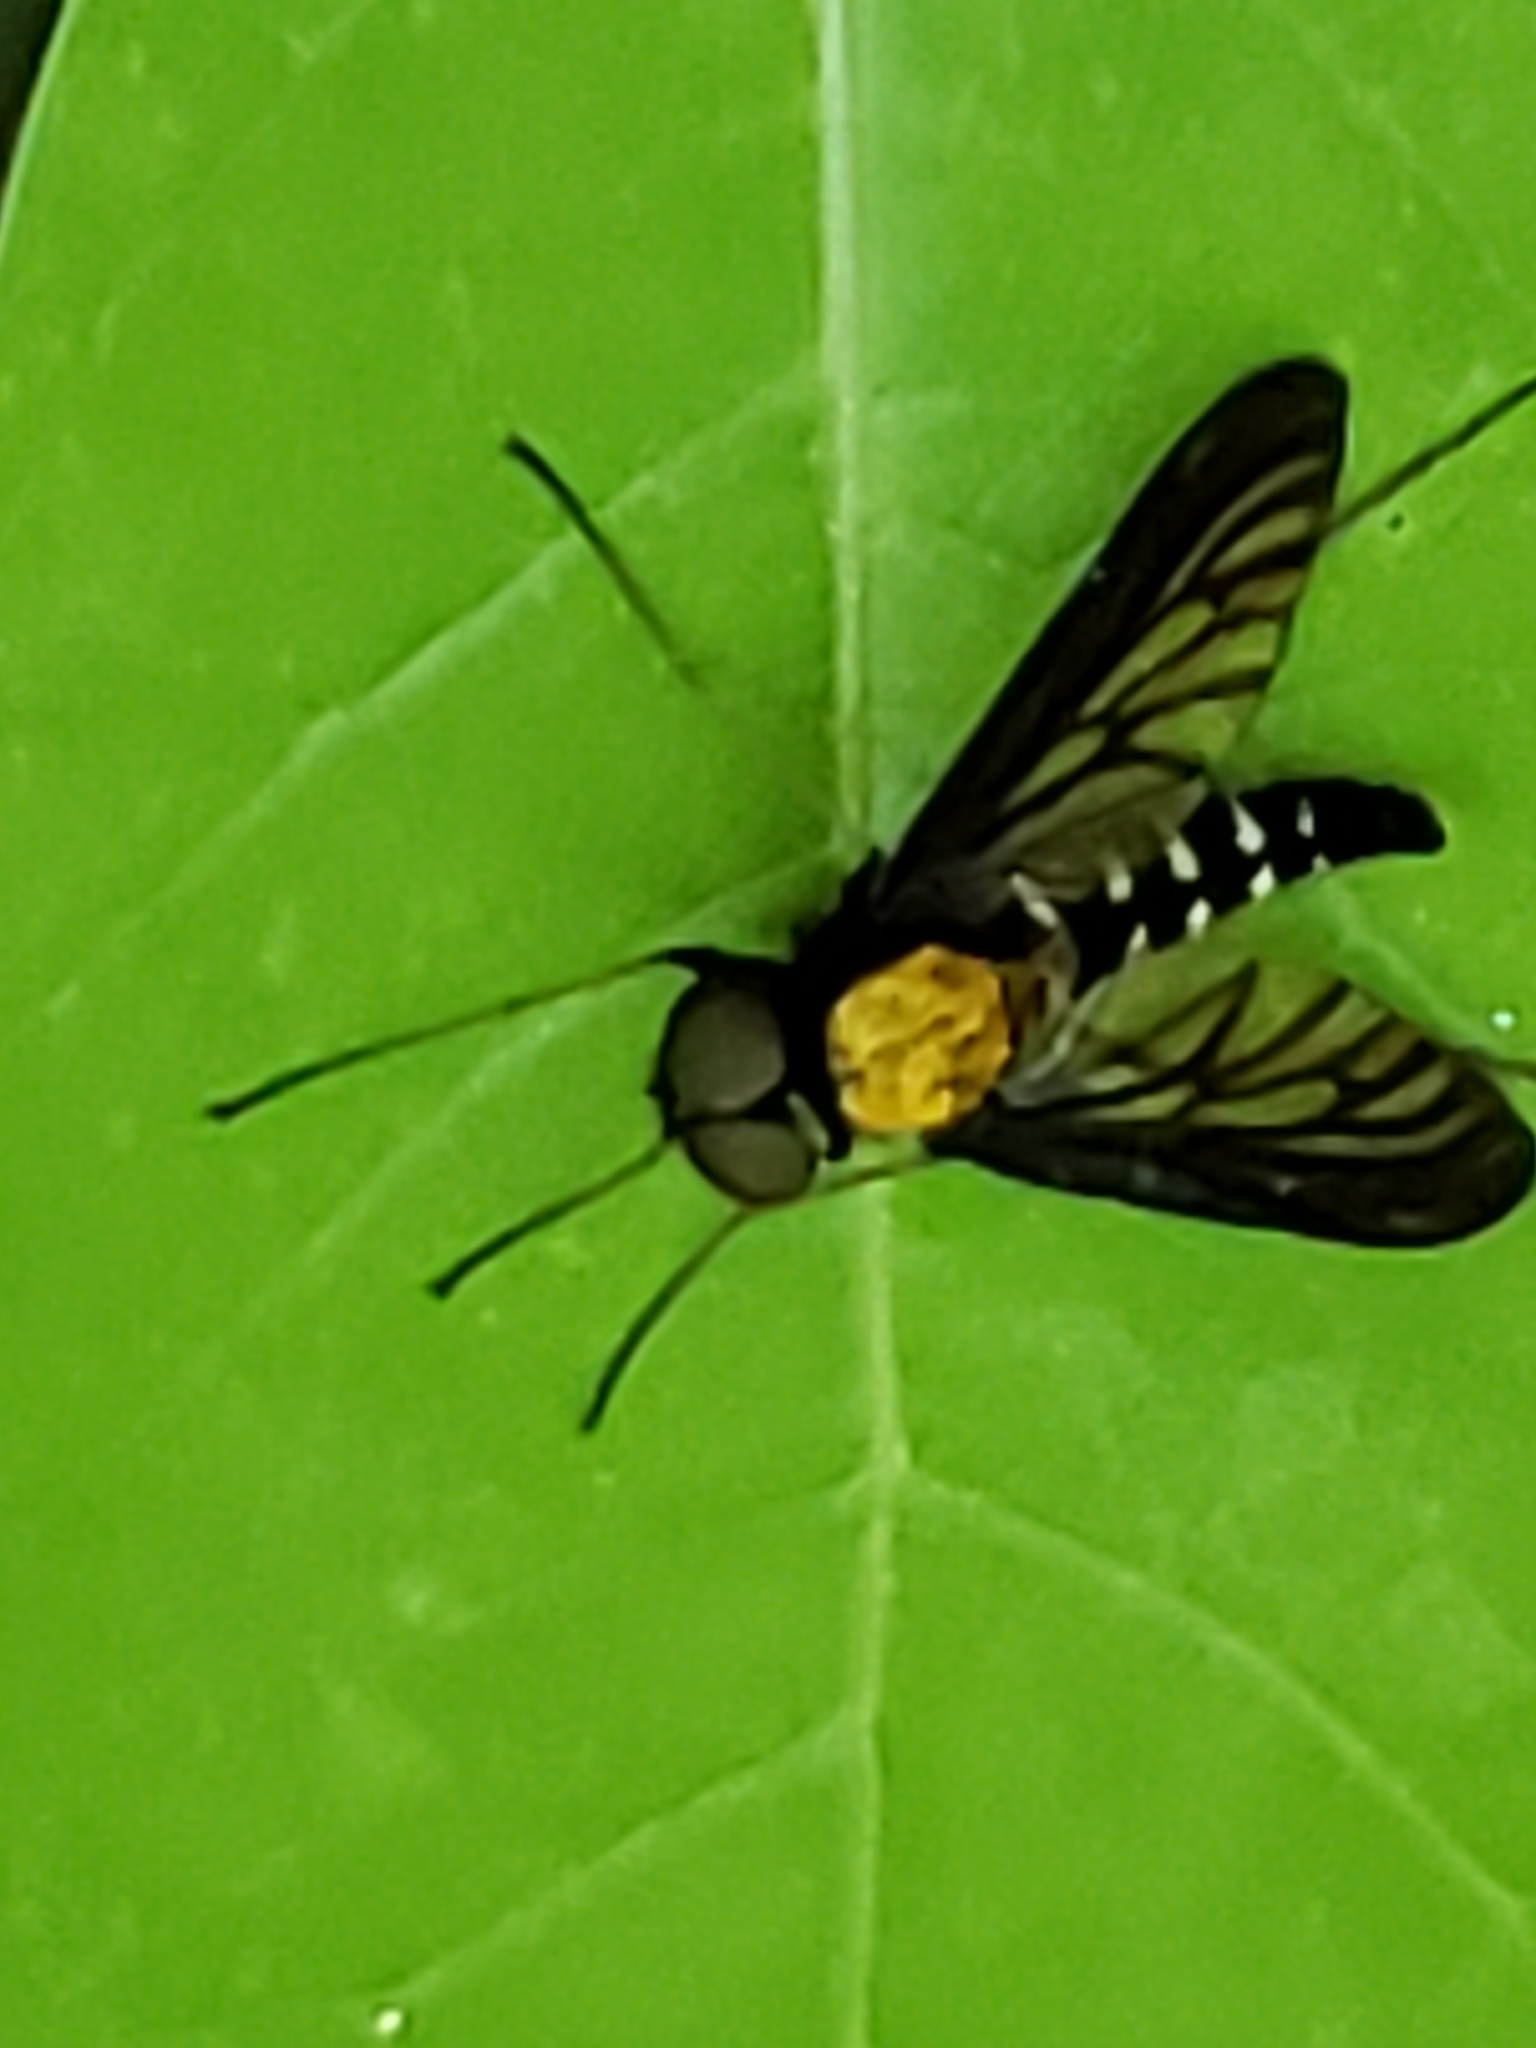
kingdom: Animalia
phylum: Arthropoda
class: Insecta
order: Diptera
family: Rhagionidae
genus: Chrysopilus
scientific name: Chrysopilus thoracicus
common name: Golden-backed snipe fly
